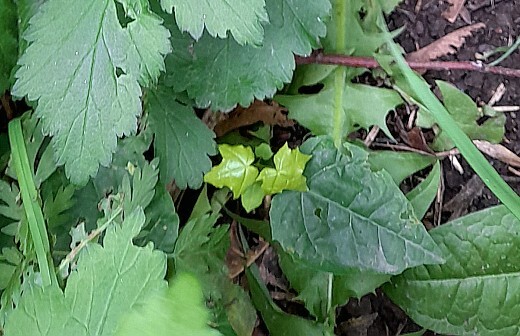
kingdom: Plantae
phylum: Tracheophyta
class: Magnoliopsida
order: Sapindales
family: Sapindaceae
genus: Acer
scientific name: Acer platanoides
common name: Norway maple
